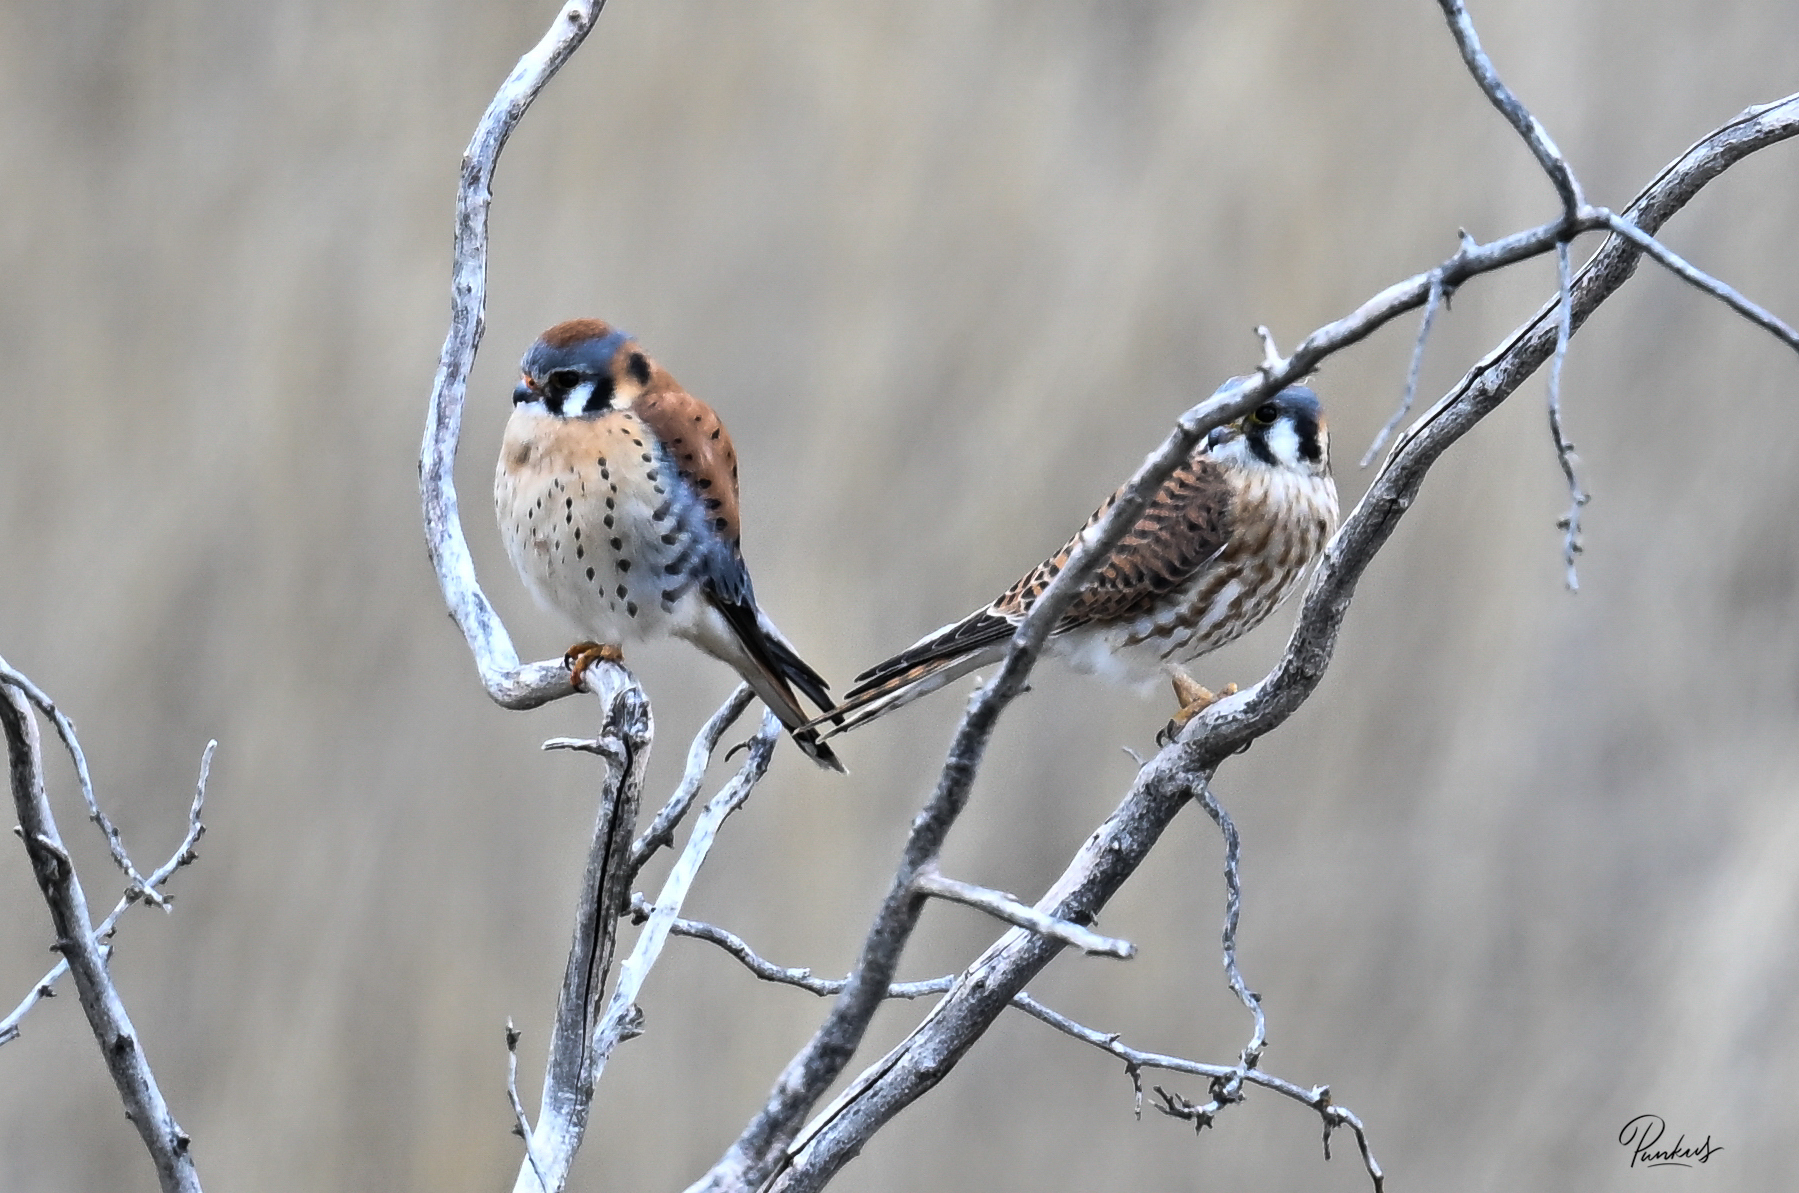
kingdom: Animalia
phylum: Chordata
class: Aves
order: Falconiformes
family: Falconidae
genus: Falco
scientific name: Falco sparverius
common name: American kestrel
